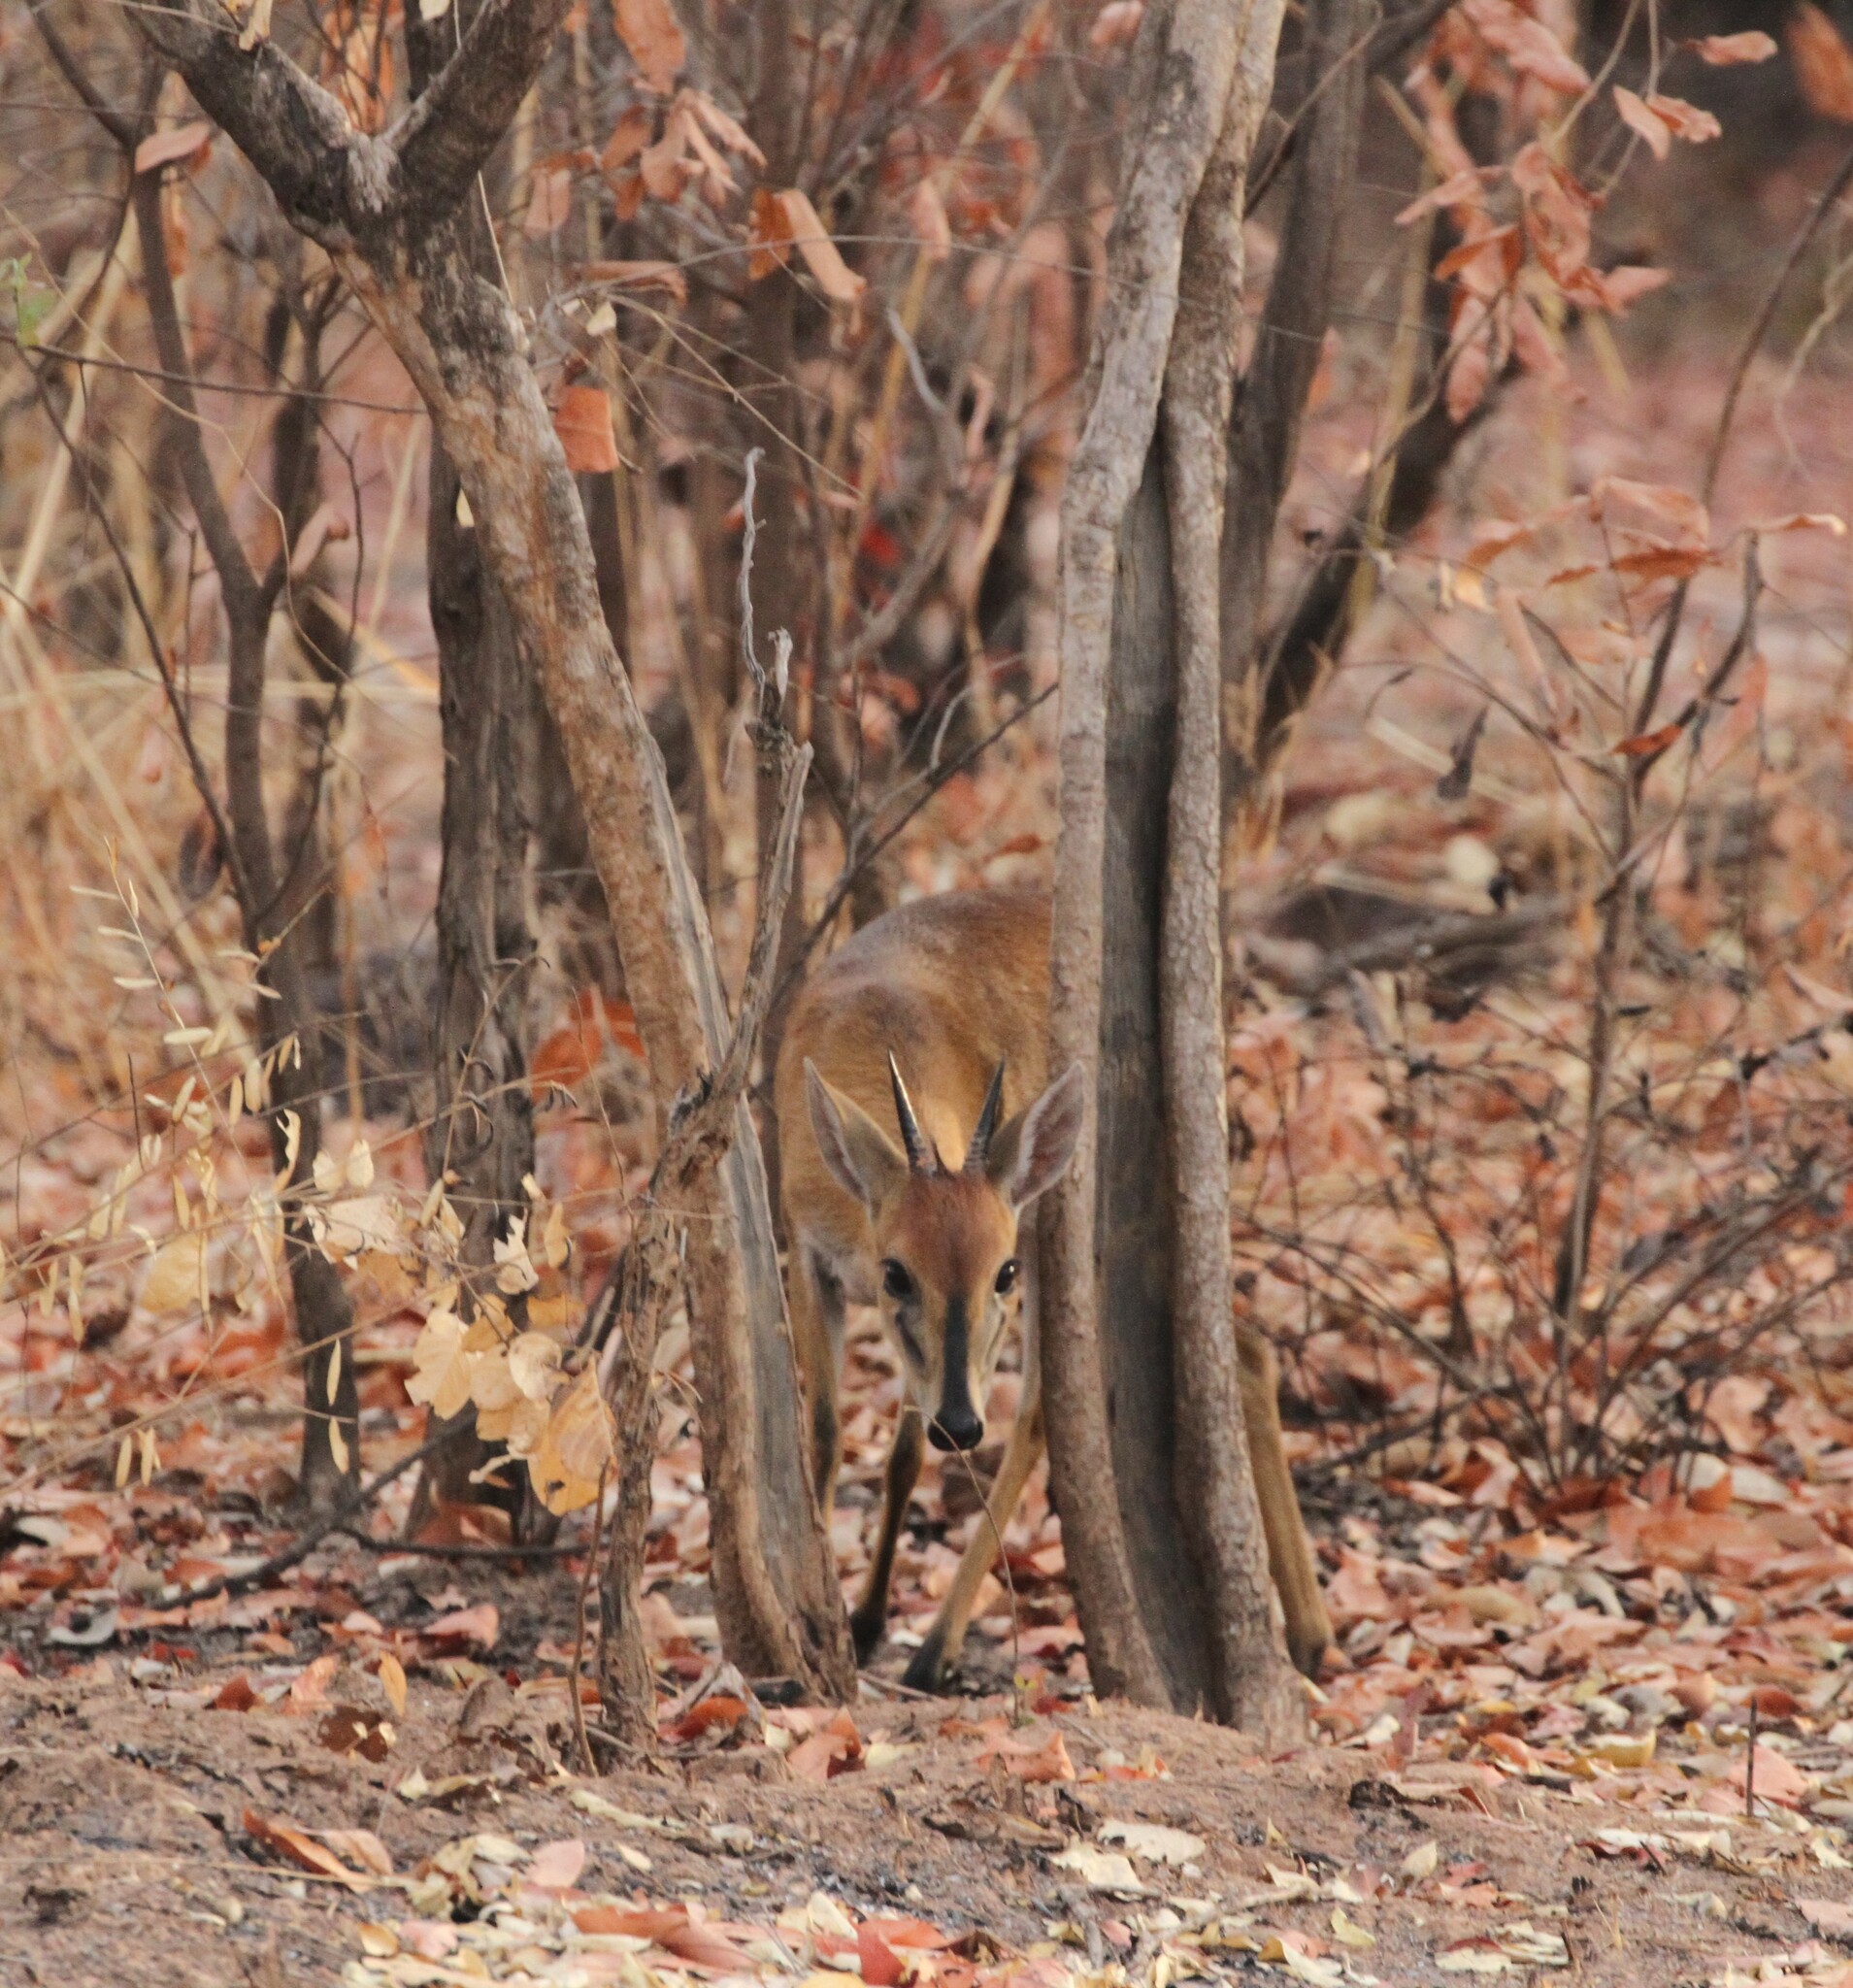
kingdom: Animalia
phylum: Chordata
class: Mammalia
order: Artiodactyla
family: Bovidae
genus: Sylvicapra
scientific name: Sylvicapra grimmia
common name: Bush duiker
